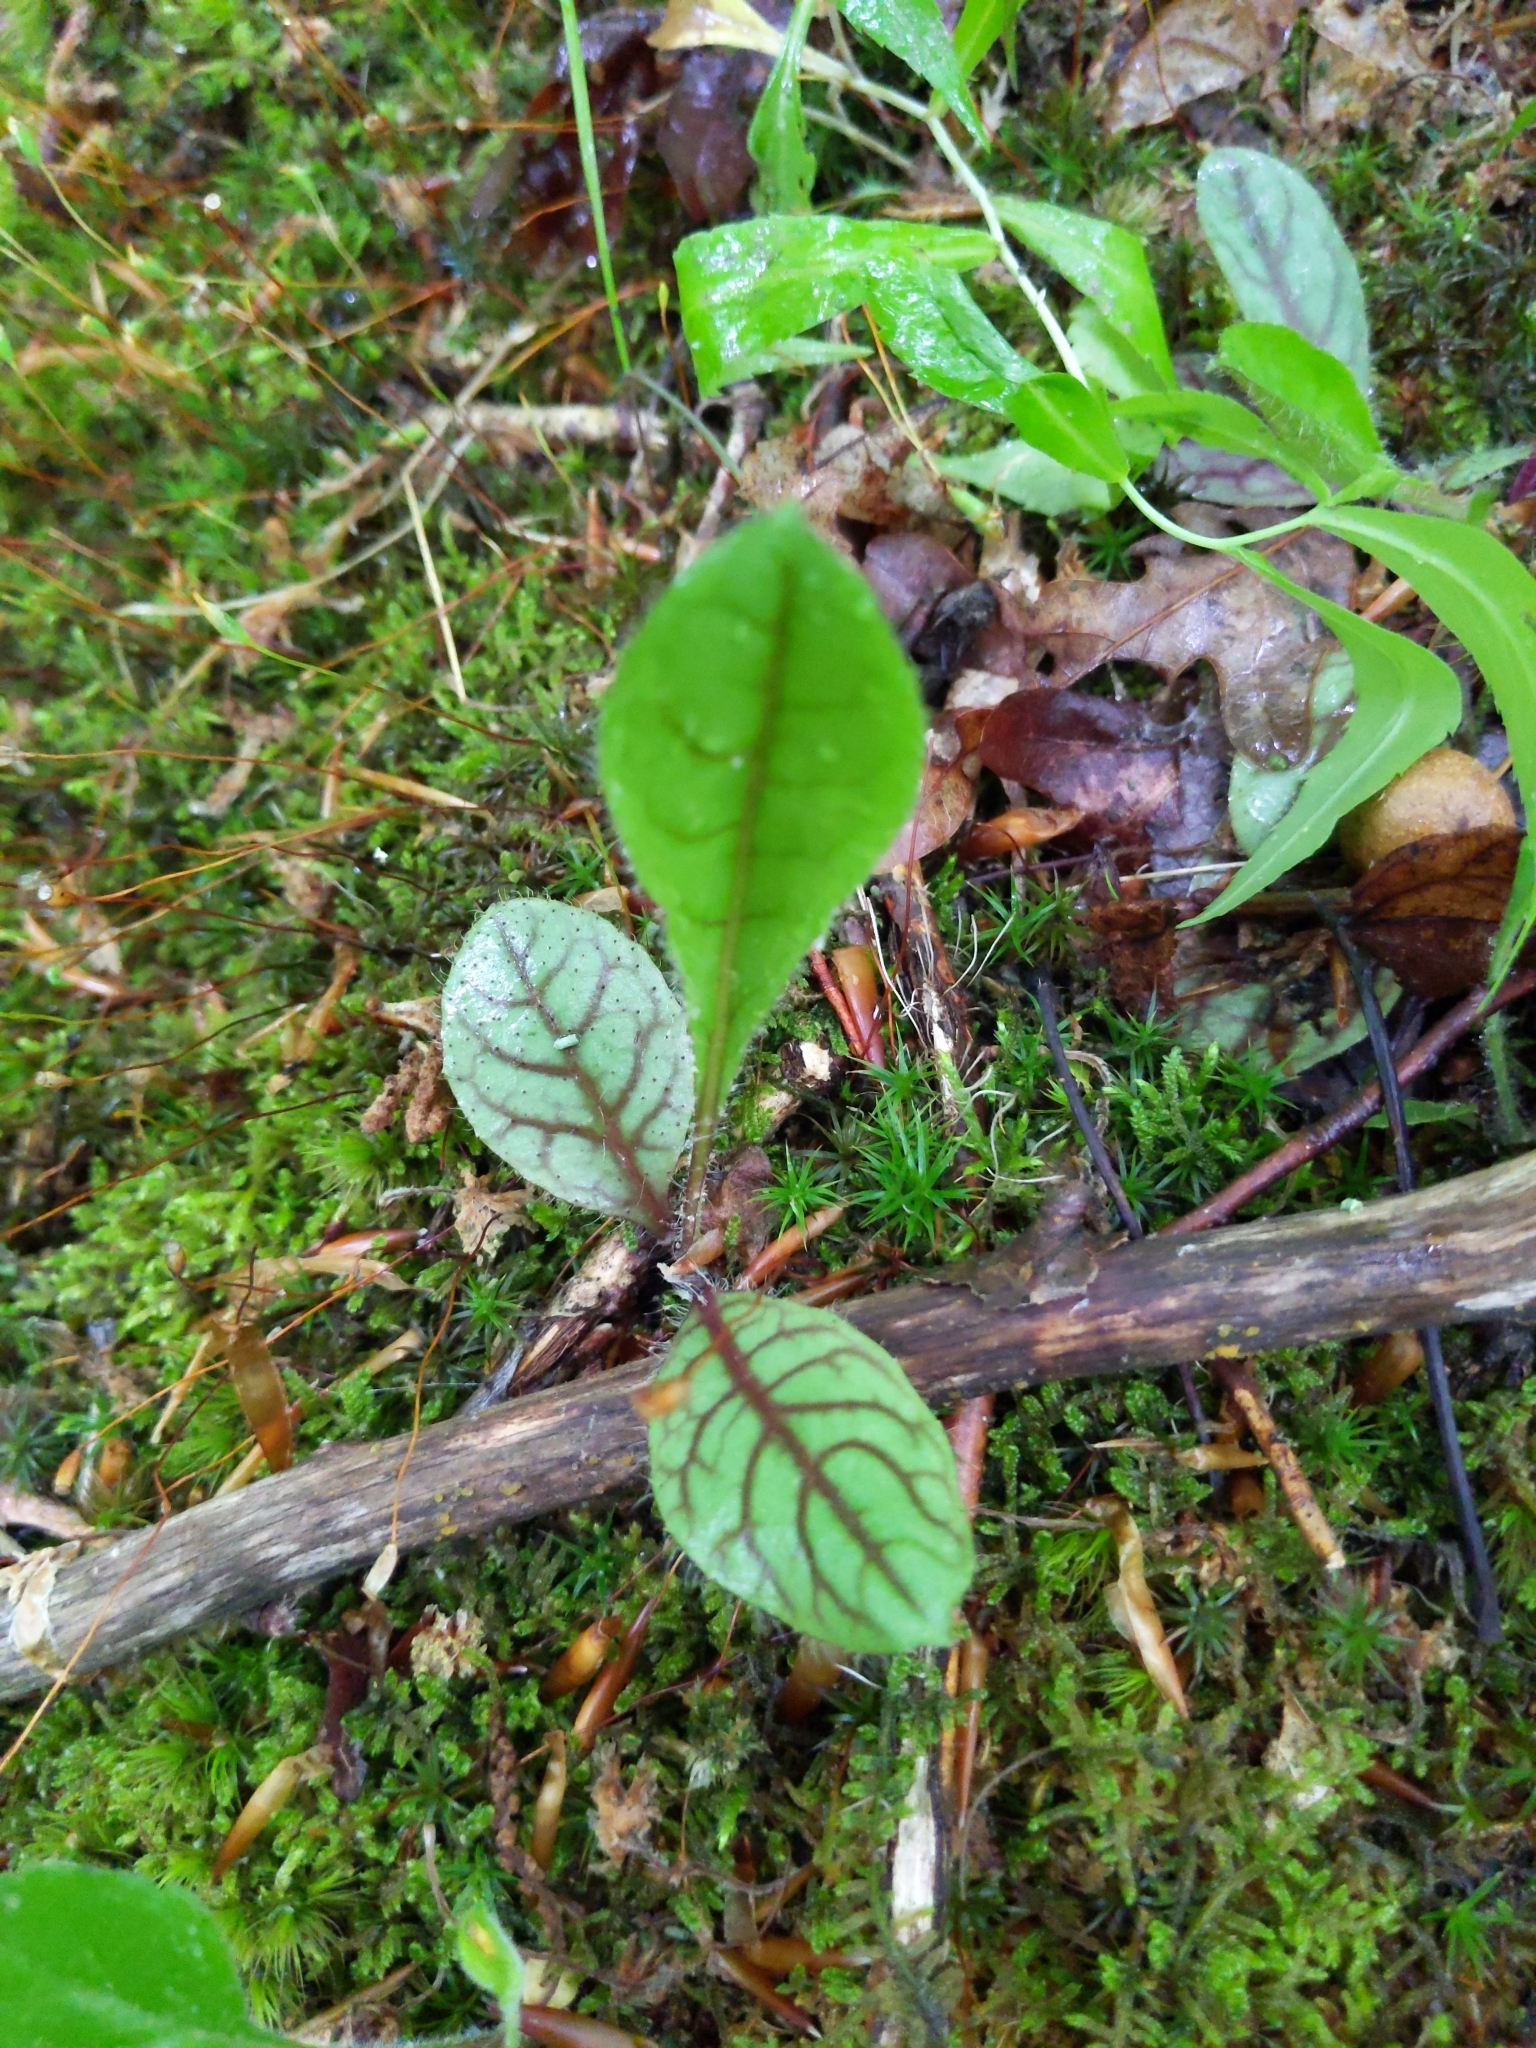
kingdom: Plantae
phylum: Tracheophyta
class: Magnoliopsida
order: Asterales
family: Asteraceae
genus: Hieracium
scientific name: Hieracium venosum
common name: Rattlesnake hawkweed
